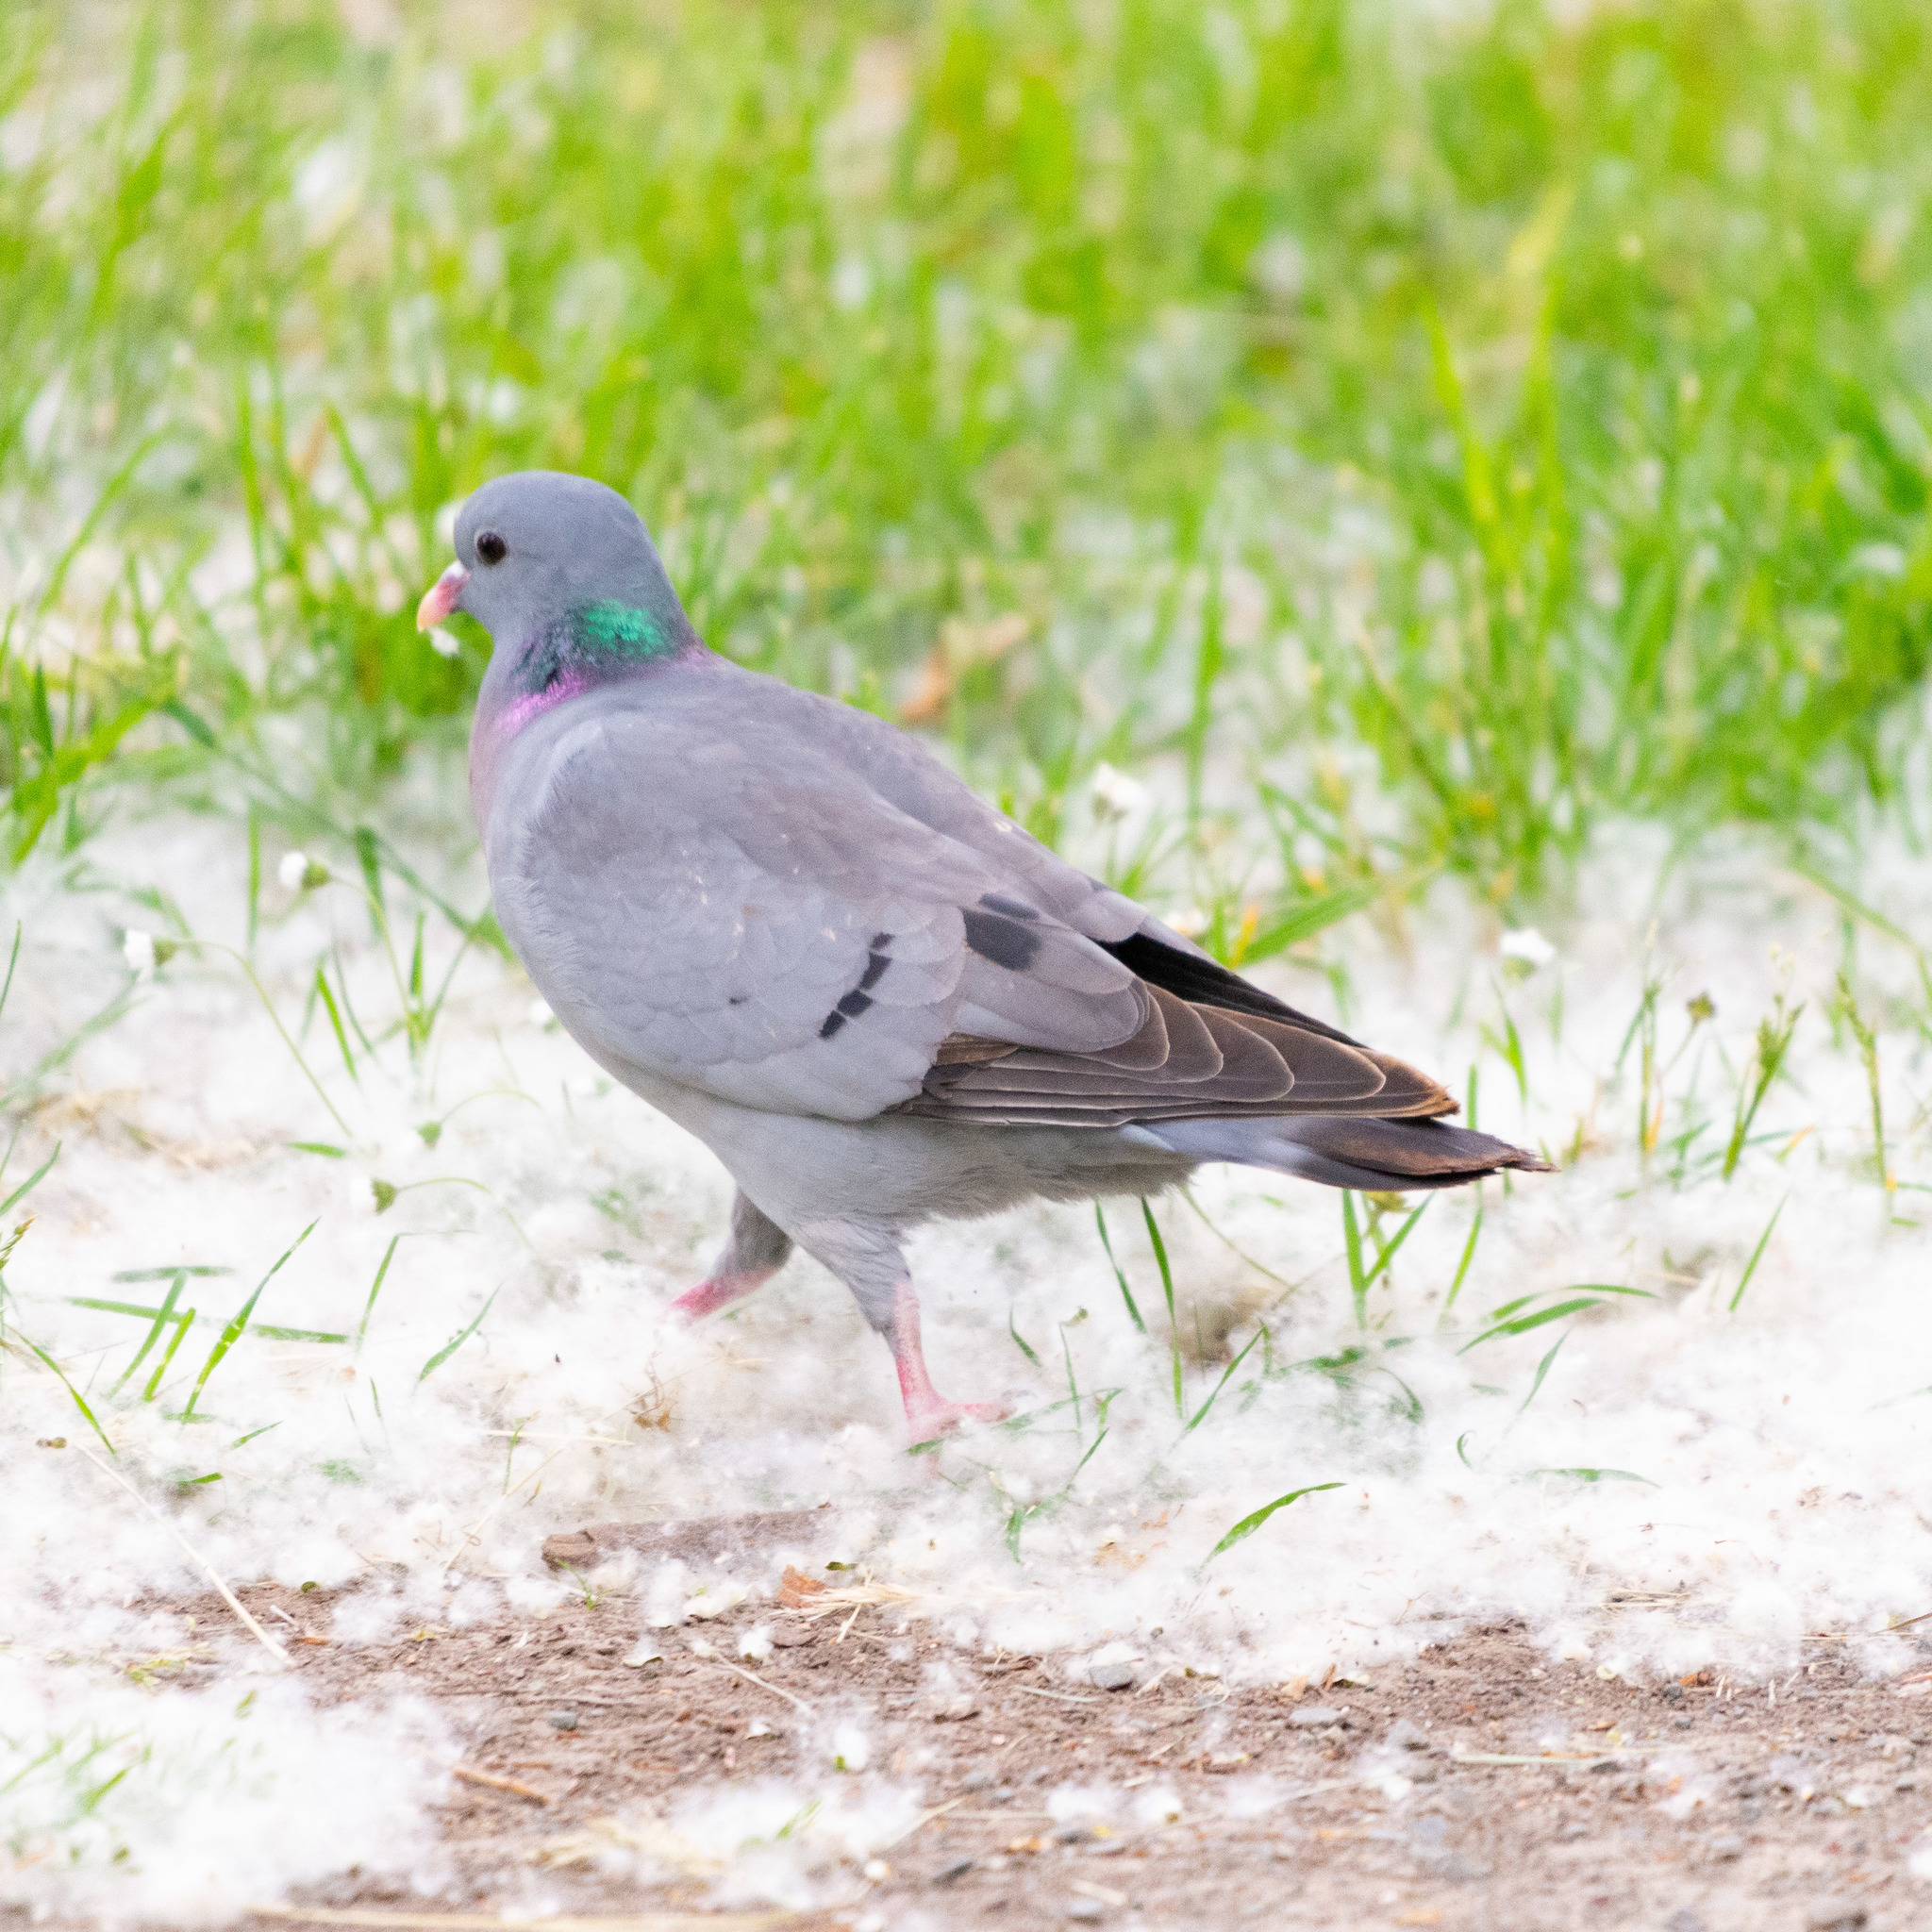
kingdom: Animalia
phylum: Chordata
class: Aves
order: Columbiformes
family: Columbidae
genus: Columba
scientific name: Columba oenas
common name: Stock dove
